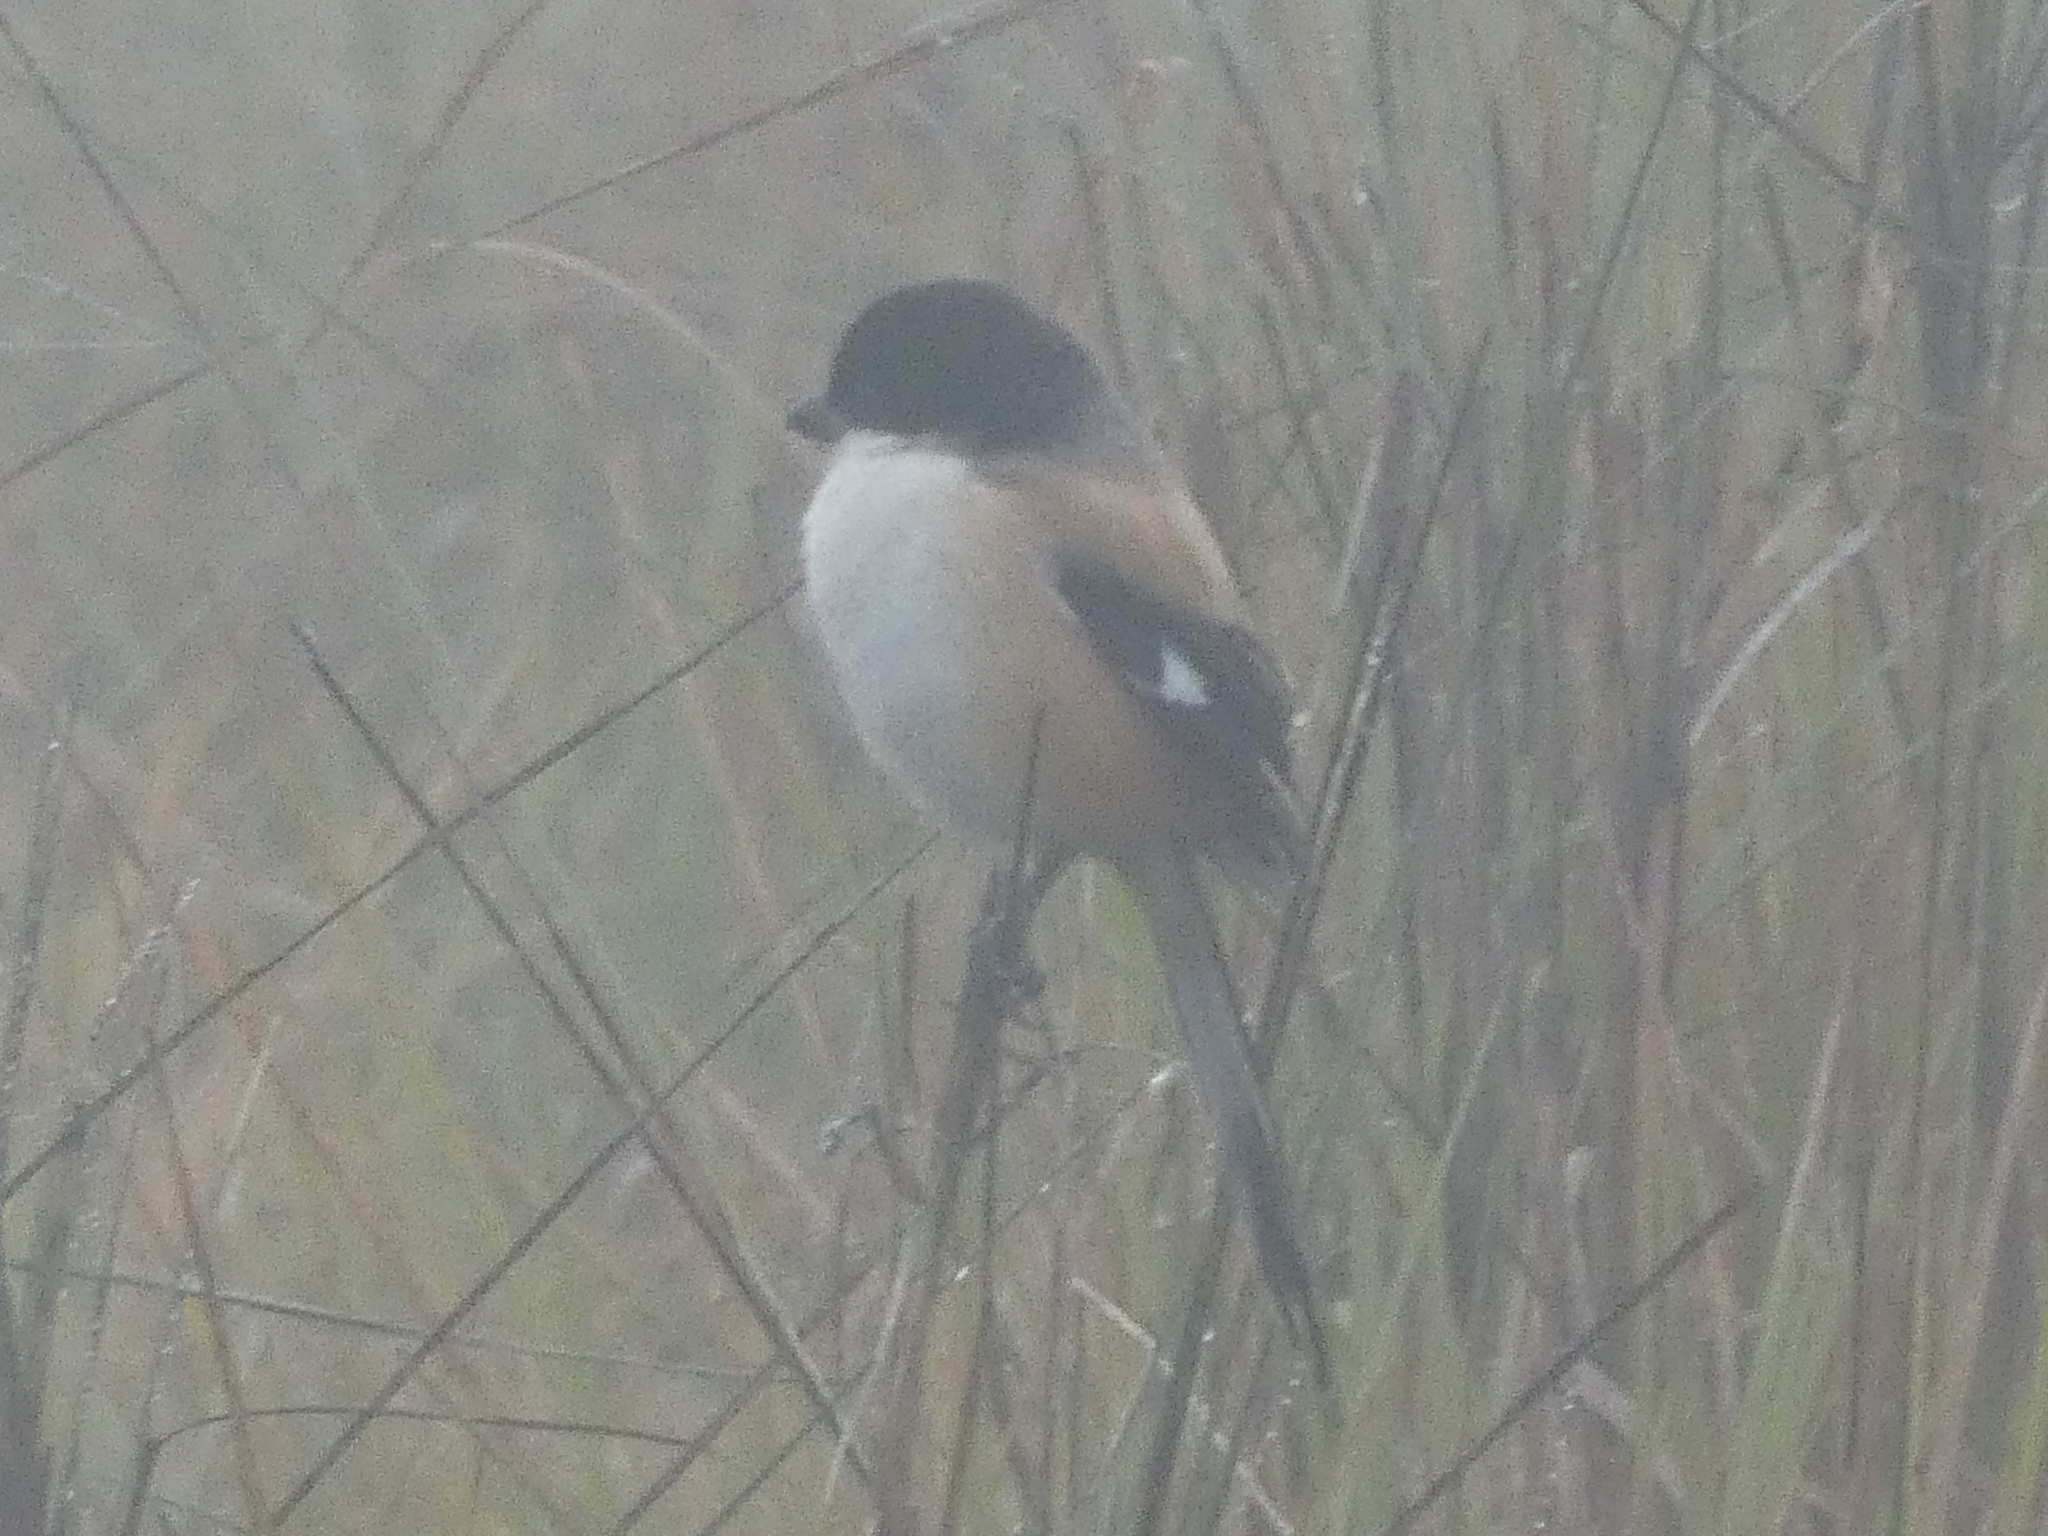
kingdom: Animalia
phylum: Chordata
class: Aves
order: Passeriformes
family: Laniidae
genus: Lanius
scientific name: Lanius schach
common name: Long-tailed shrike
